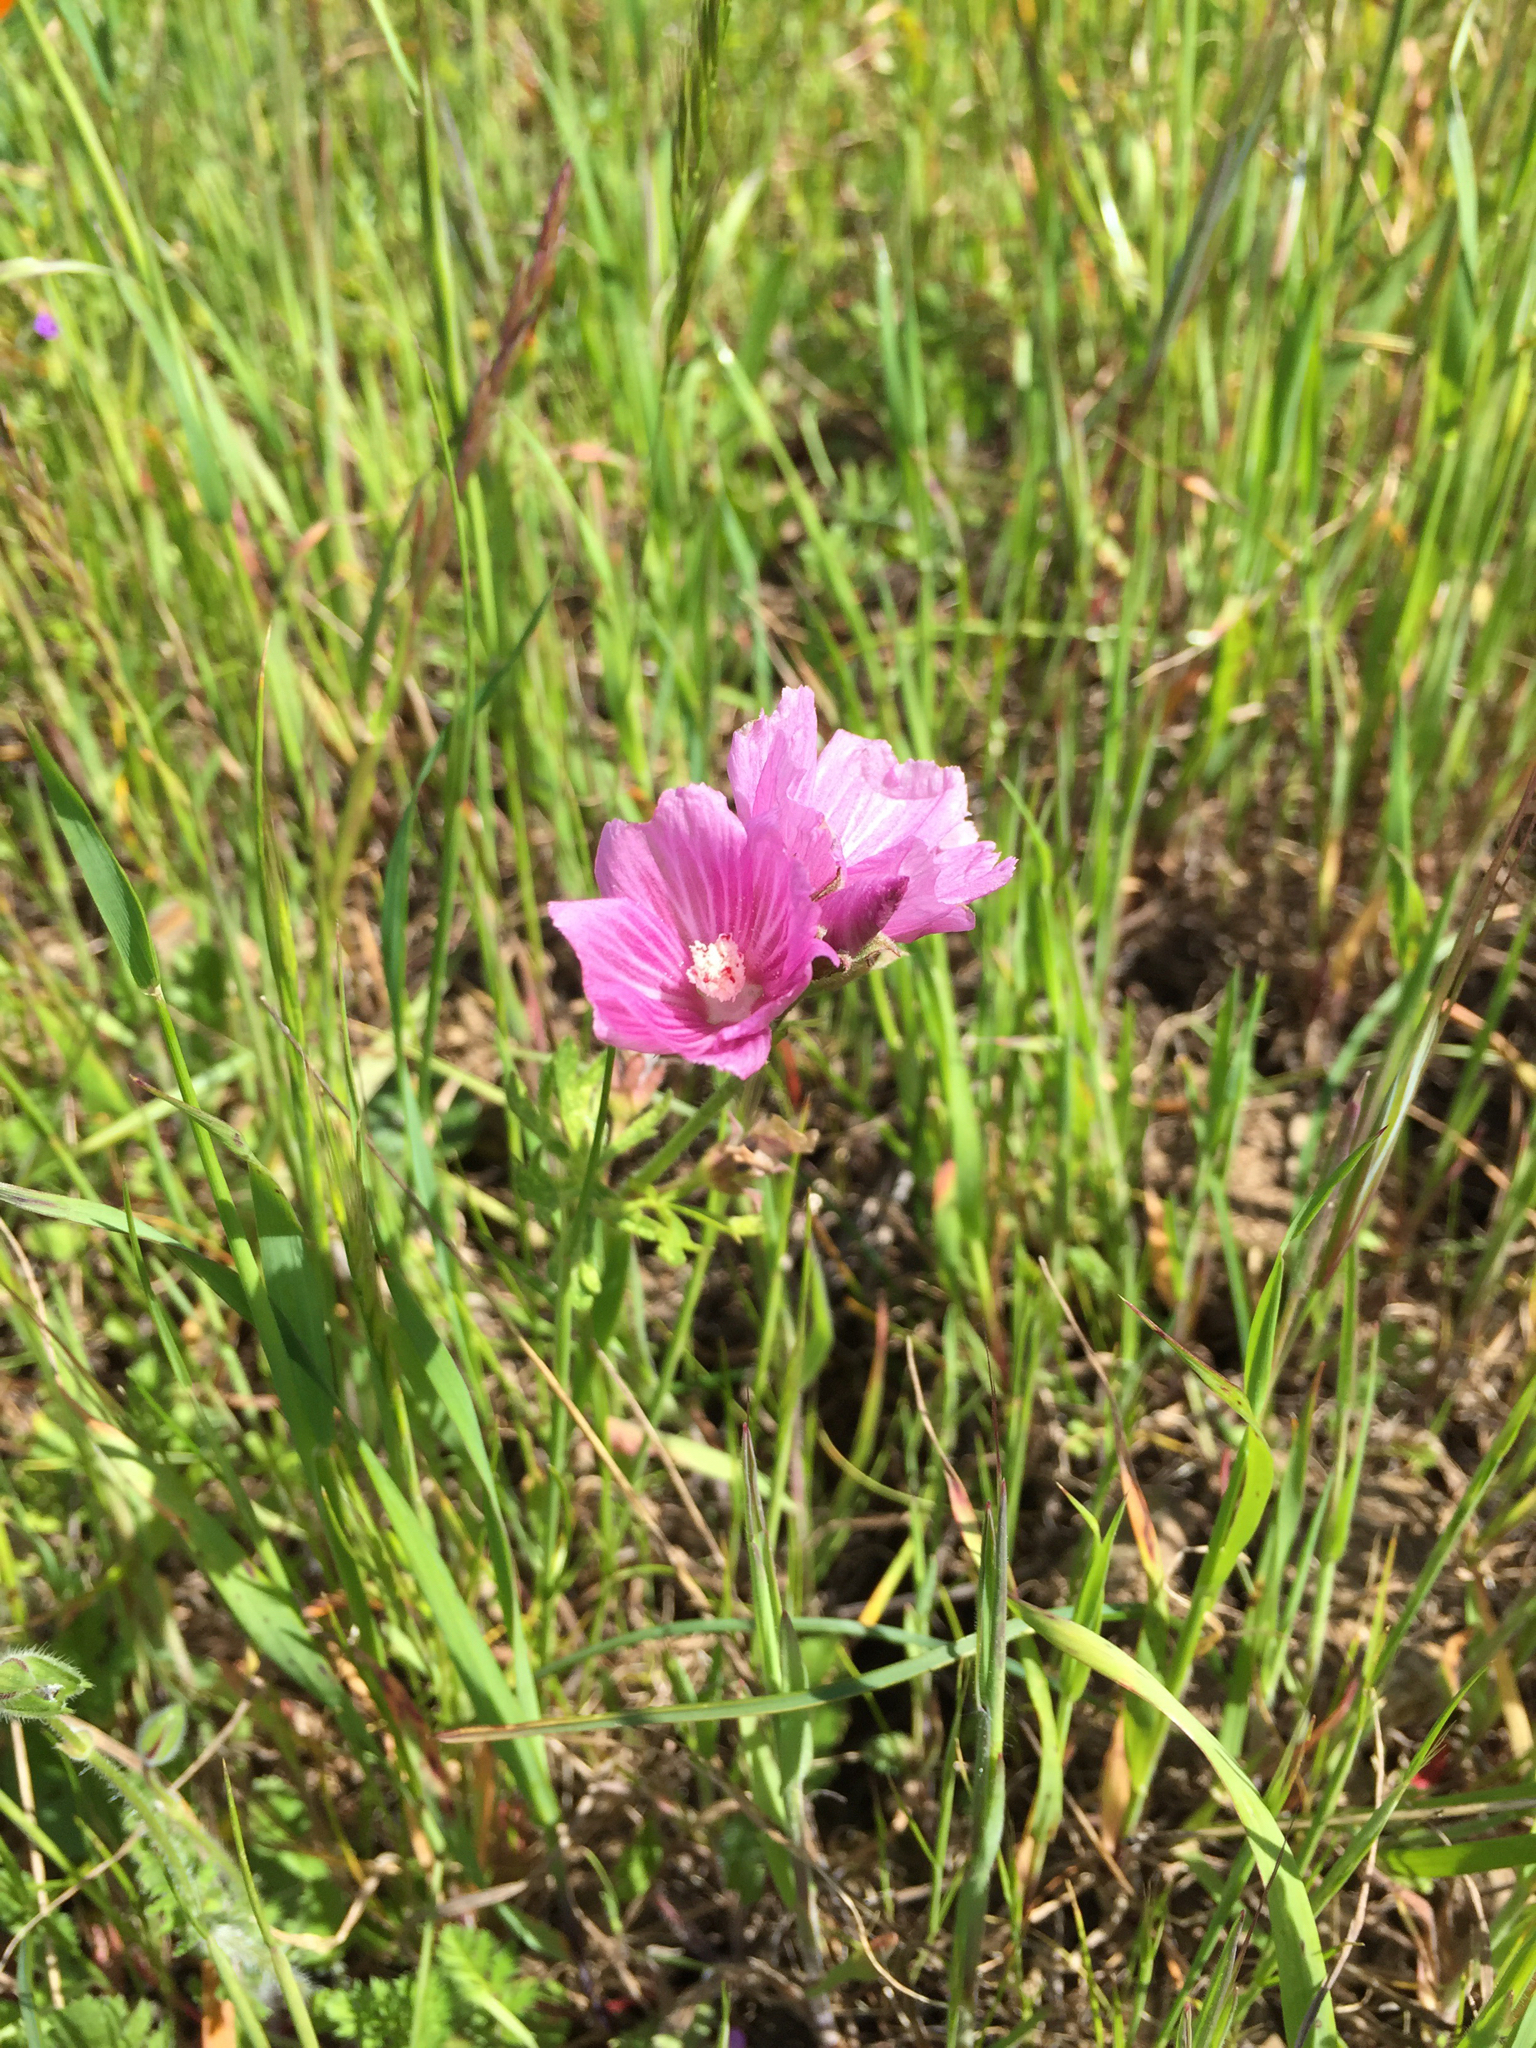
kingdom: Plantae
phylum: Tracheophyta
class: Magnoliopsida
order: Malvales
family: Malvaceae
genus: Sidalcea
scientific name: Sidalcea malviflora
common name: Greek mallow
